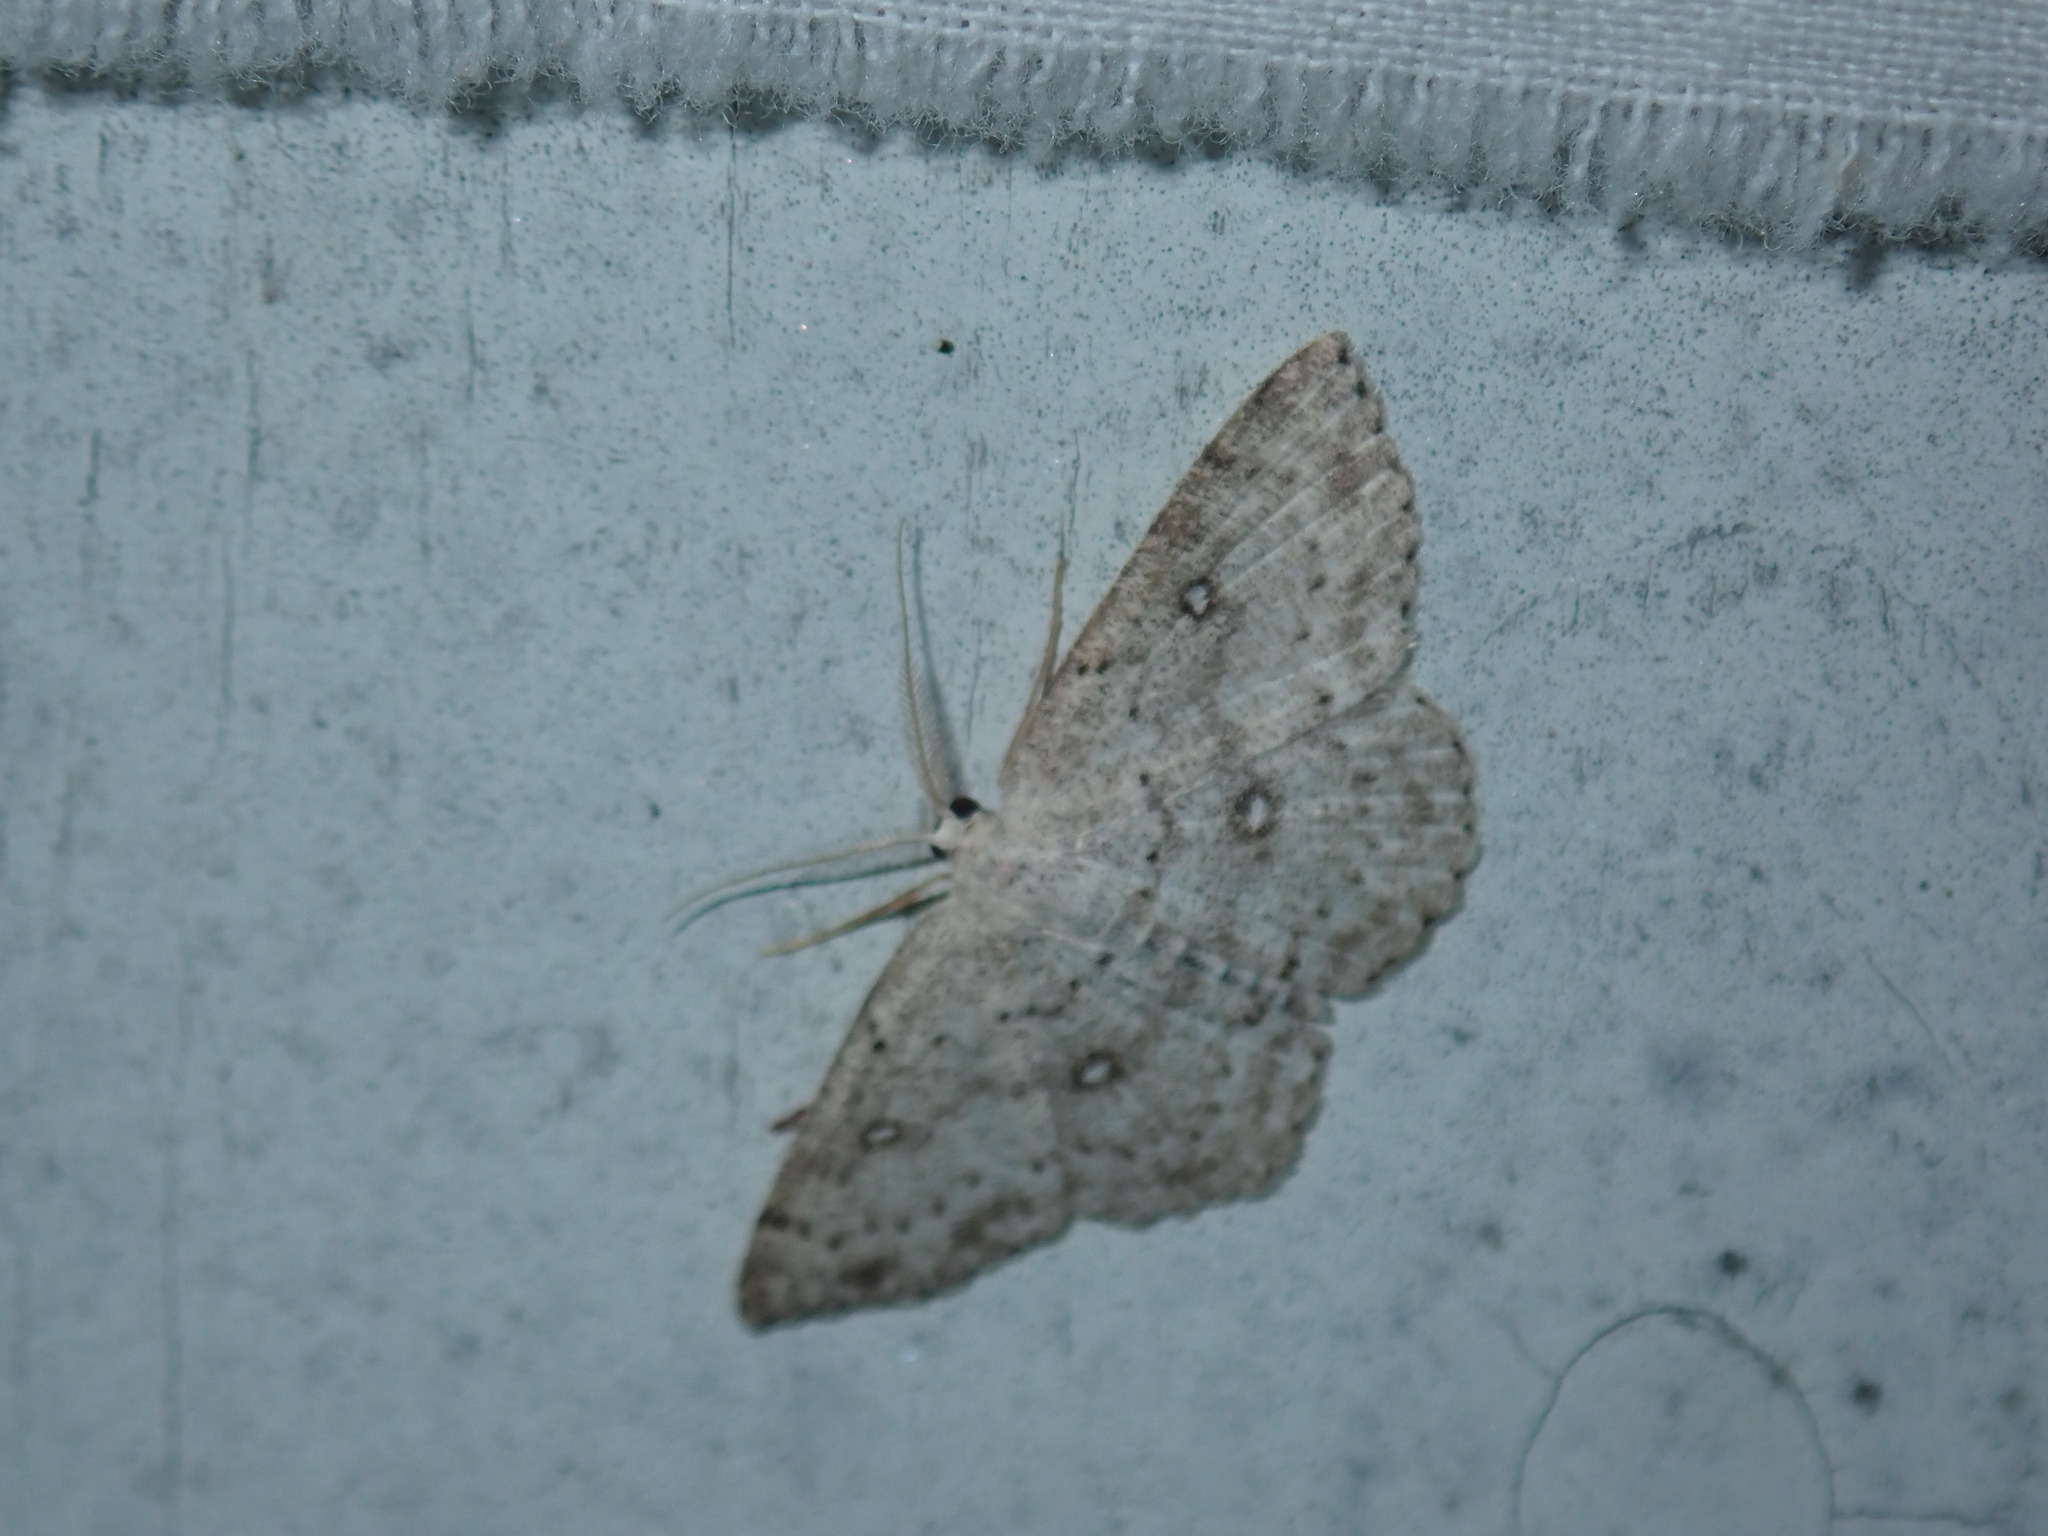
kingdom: Animalia
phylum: Arthropoda
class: Insecta
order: Lepidoptera
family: Geometridae
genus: Cyclophora
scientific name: Cyclophora pendulinaria
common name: Sweet fern geometer
